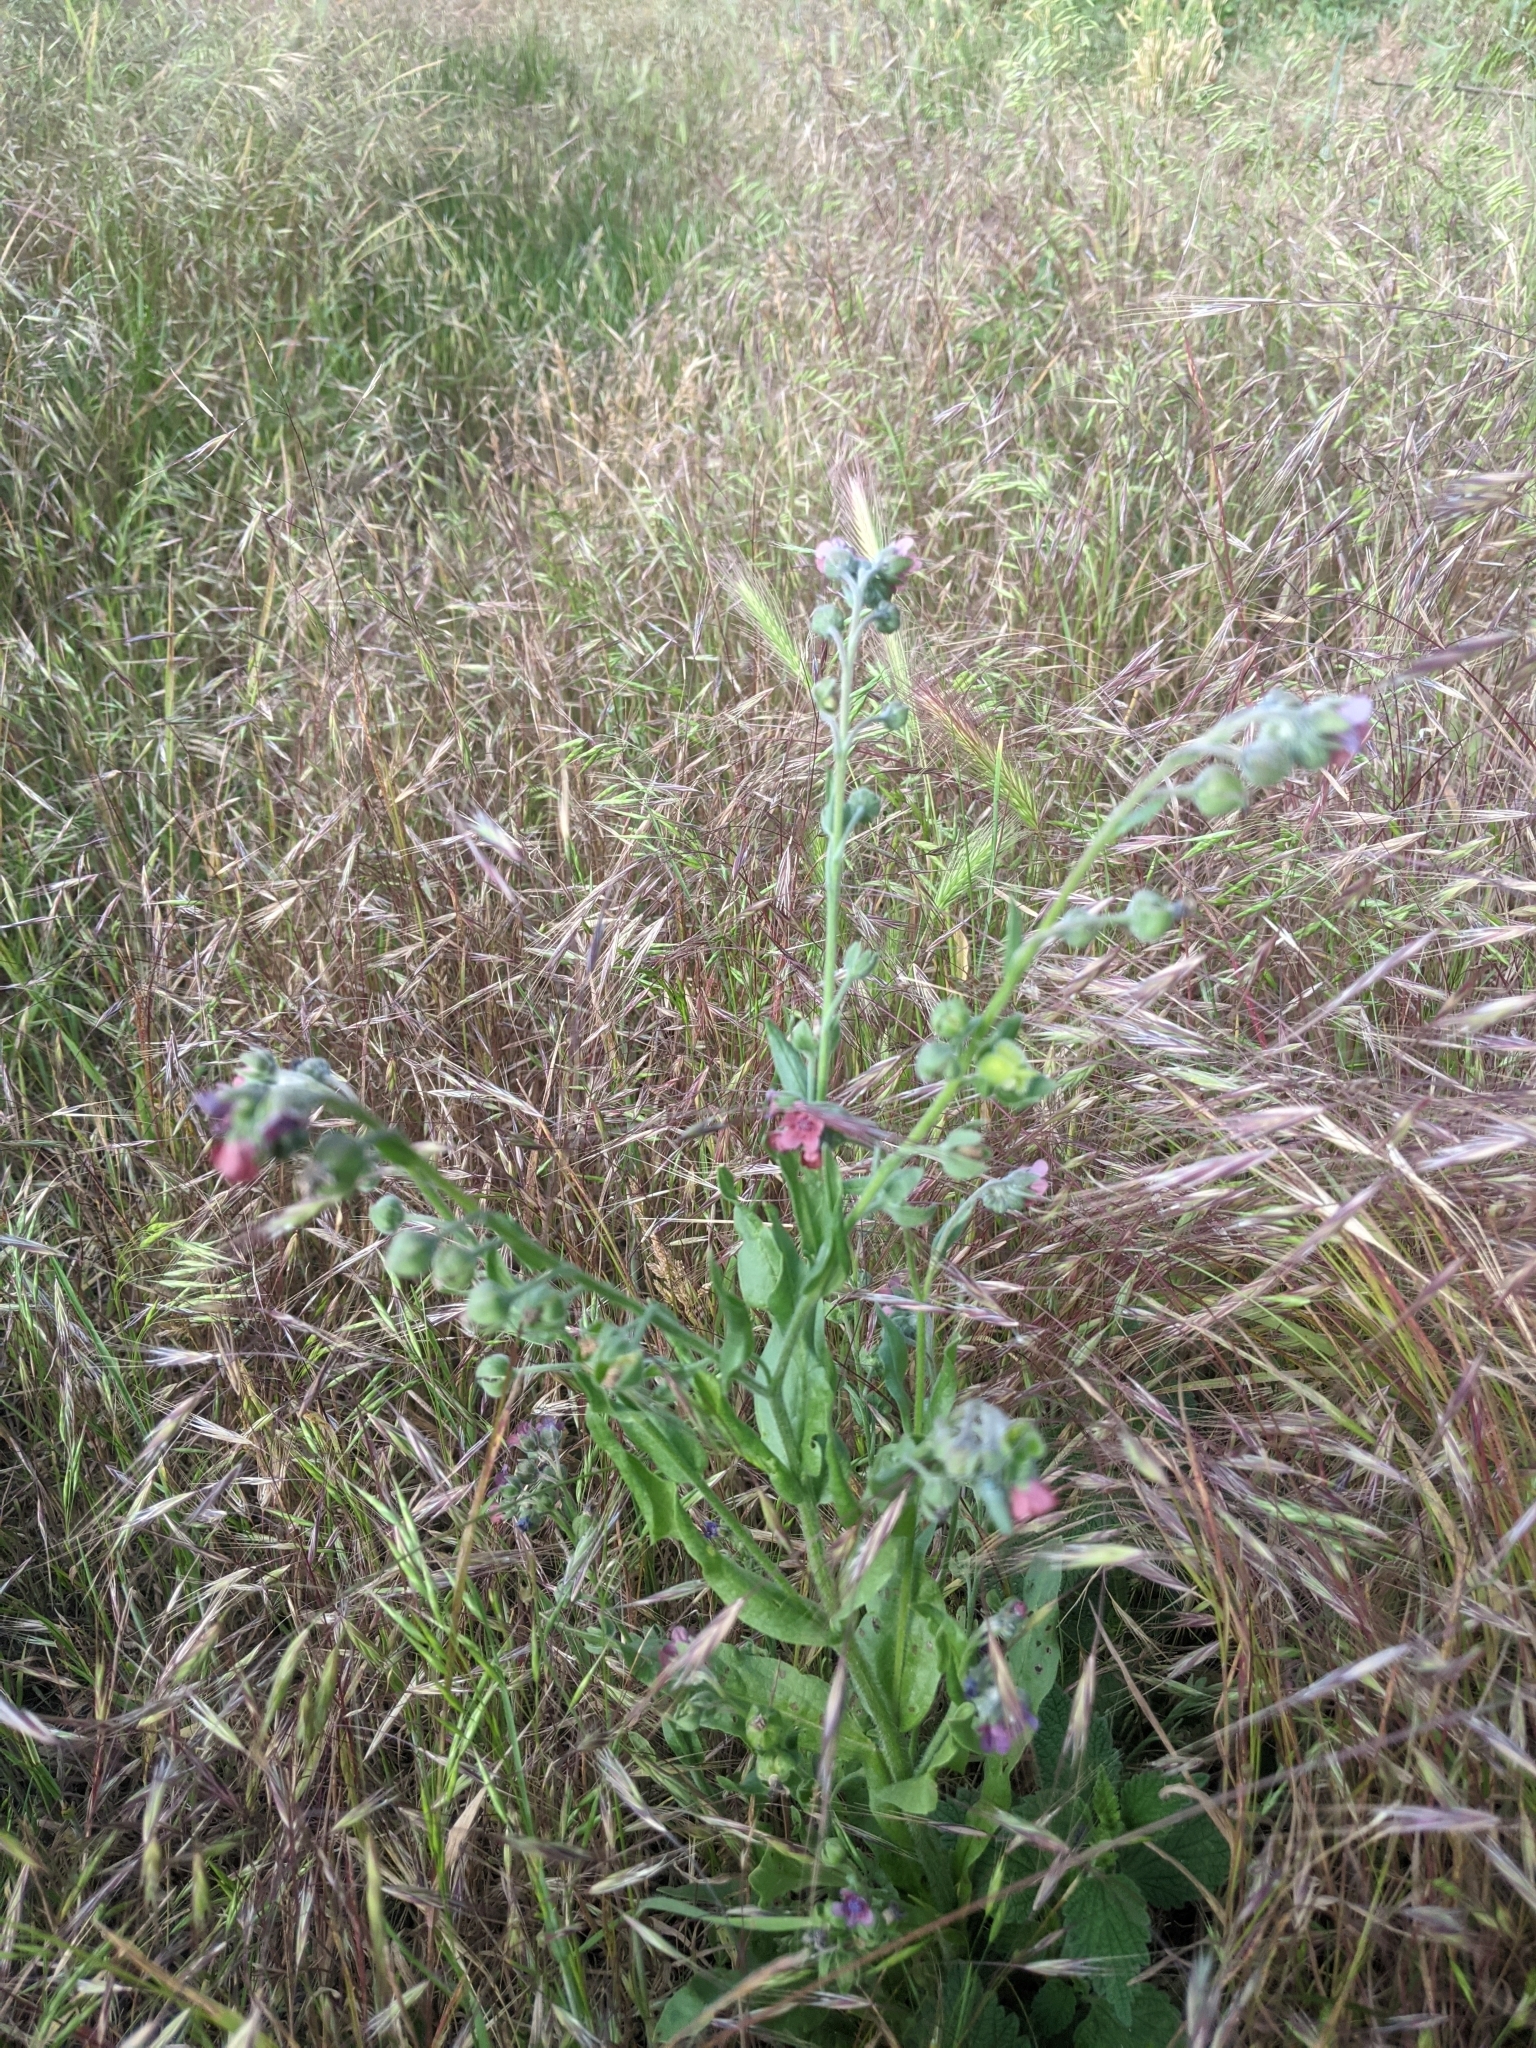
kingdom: Plantae
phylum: Tracheophyta
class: Magnoliopsida
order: Boraginales
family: Boraginaceae
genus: Cynoglossum
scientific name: Cynoglossum officinale
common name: Hound's-tongue
